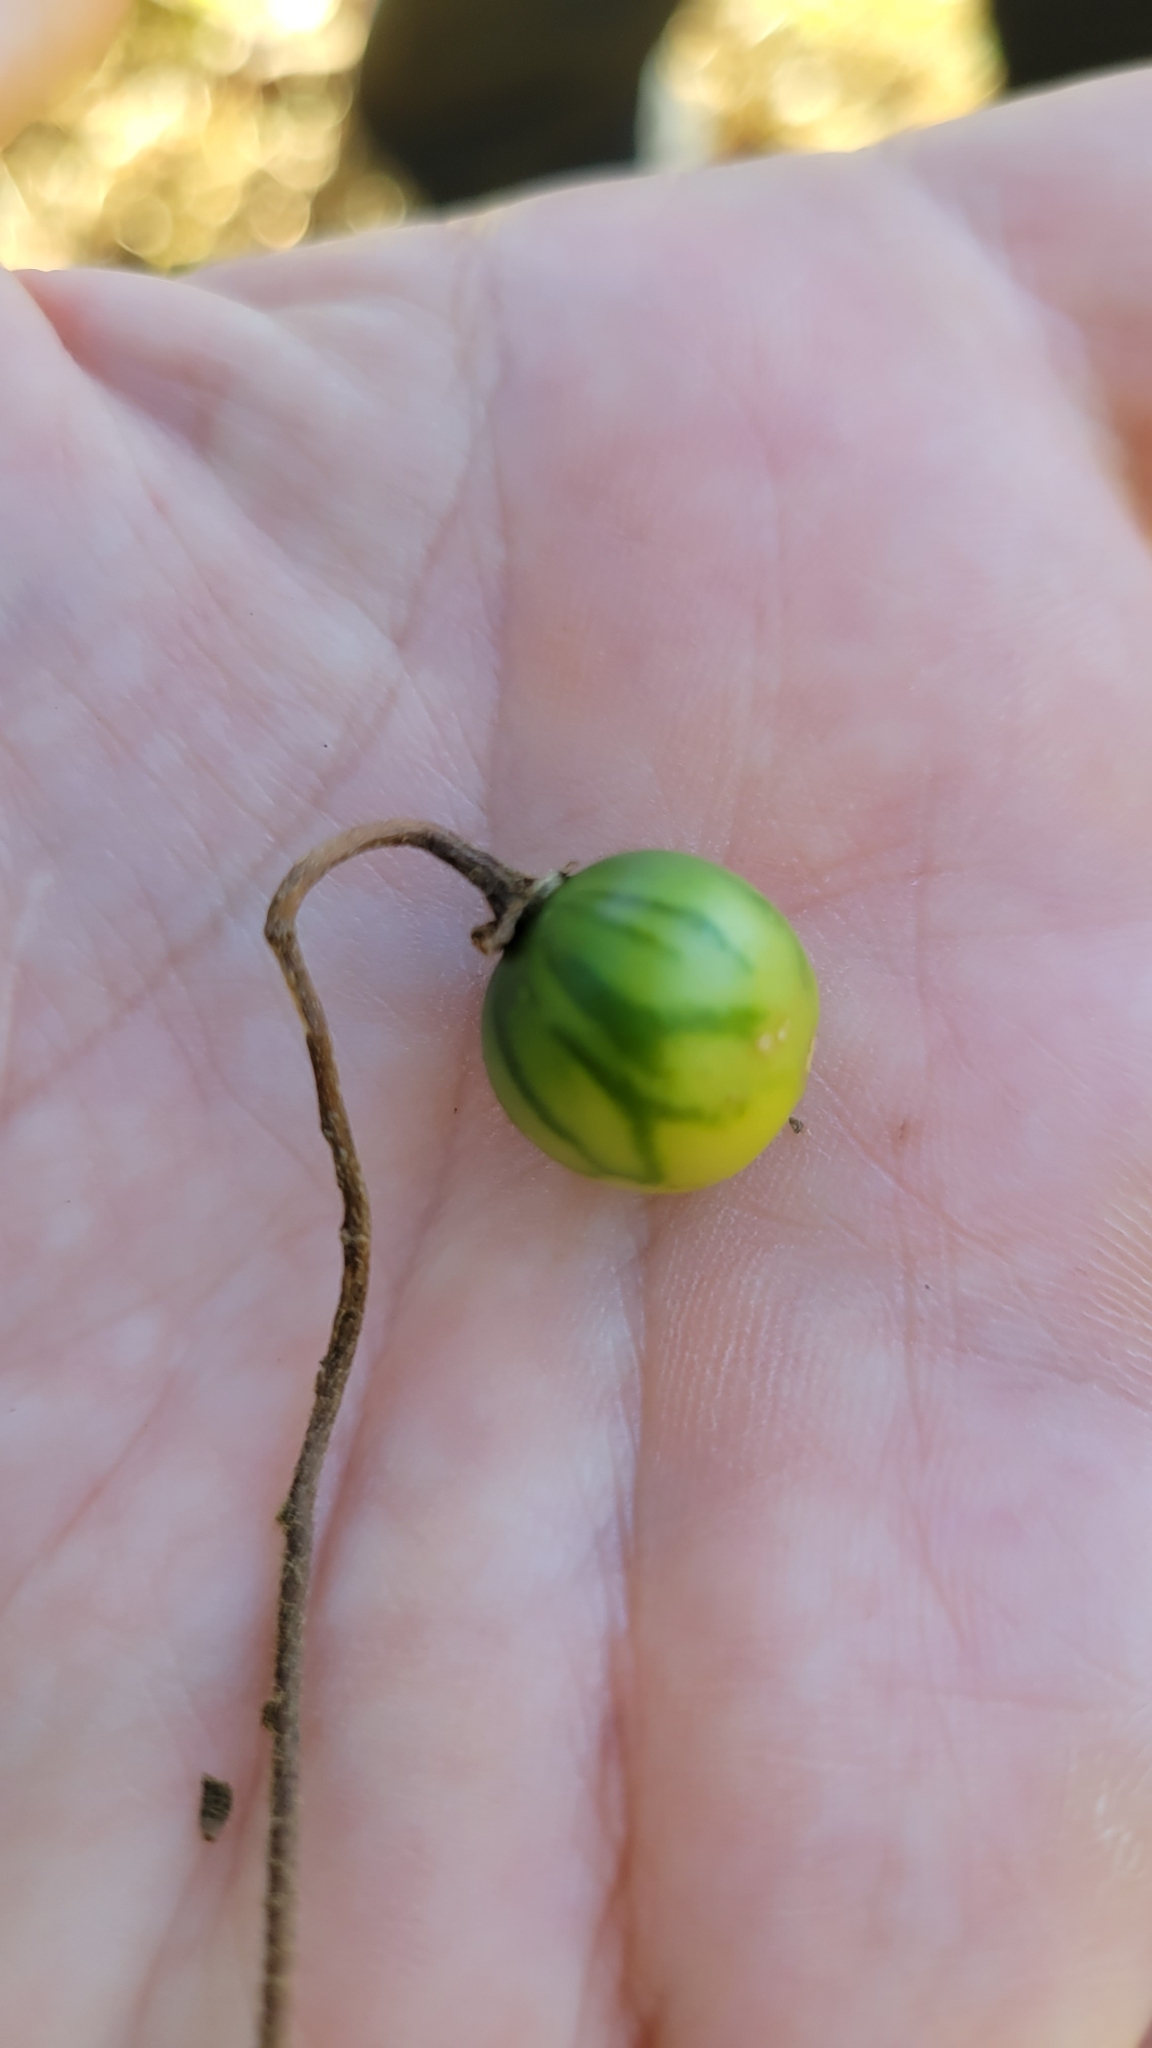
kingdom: Plantae
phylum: Tracheophyta
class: Magnoliopsida
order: Solanales
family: Solanaceae
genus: Solanum
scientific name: Solanum carolinense
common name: Horse-nettle
